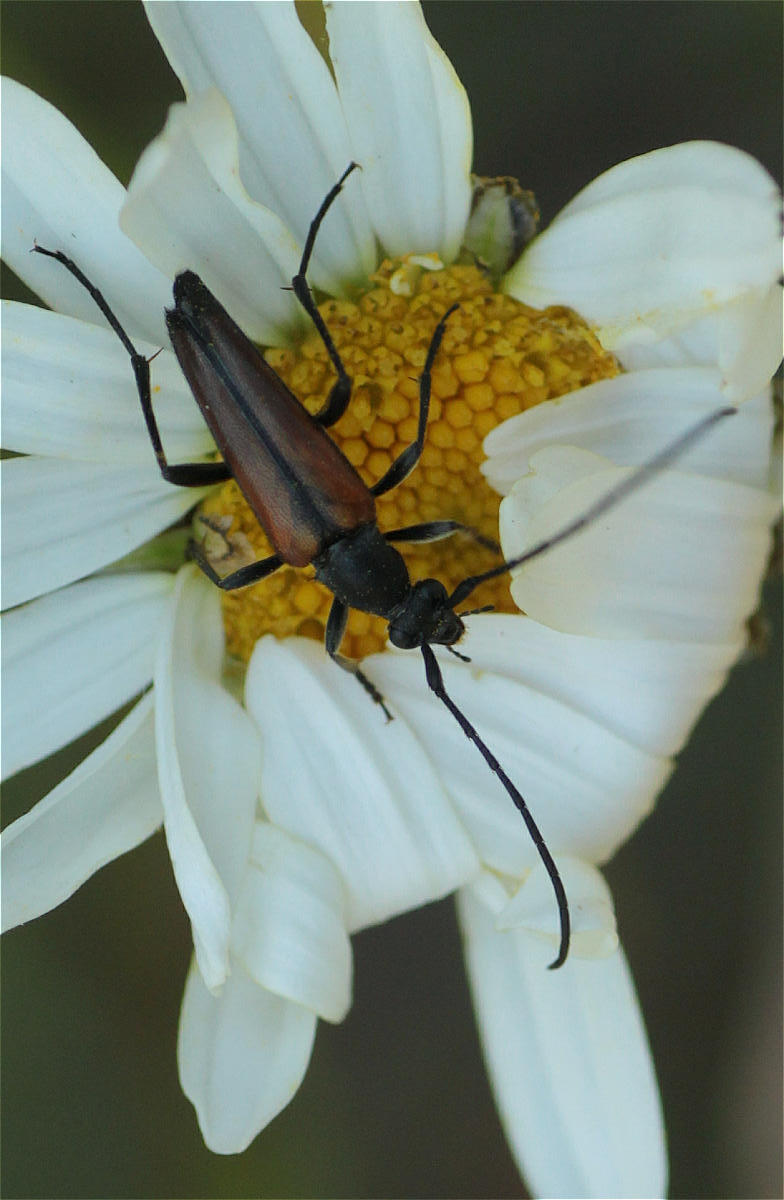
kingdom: Animalia
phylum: Arthropoda
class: Insecta
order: Coleoptera
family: Cerambycidae
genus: Stenurella
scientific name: Stenurella melanura
